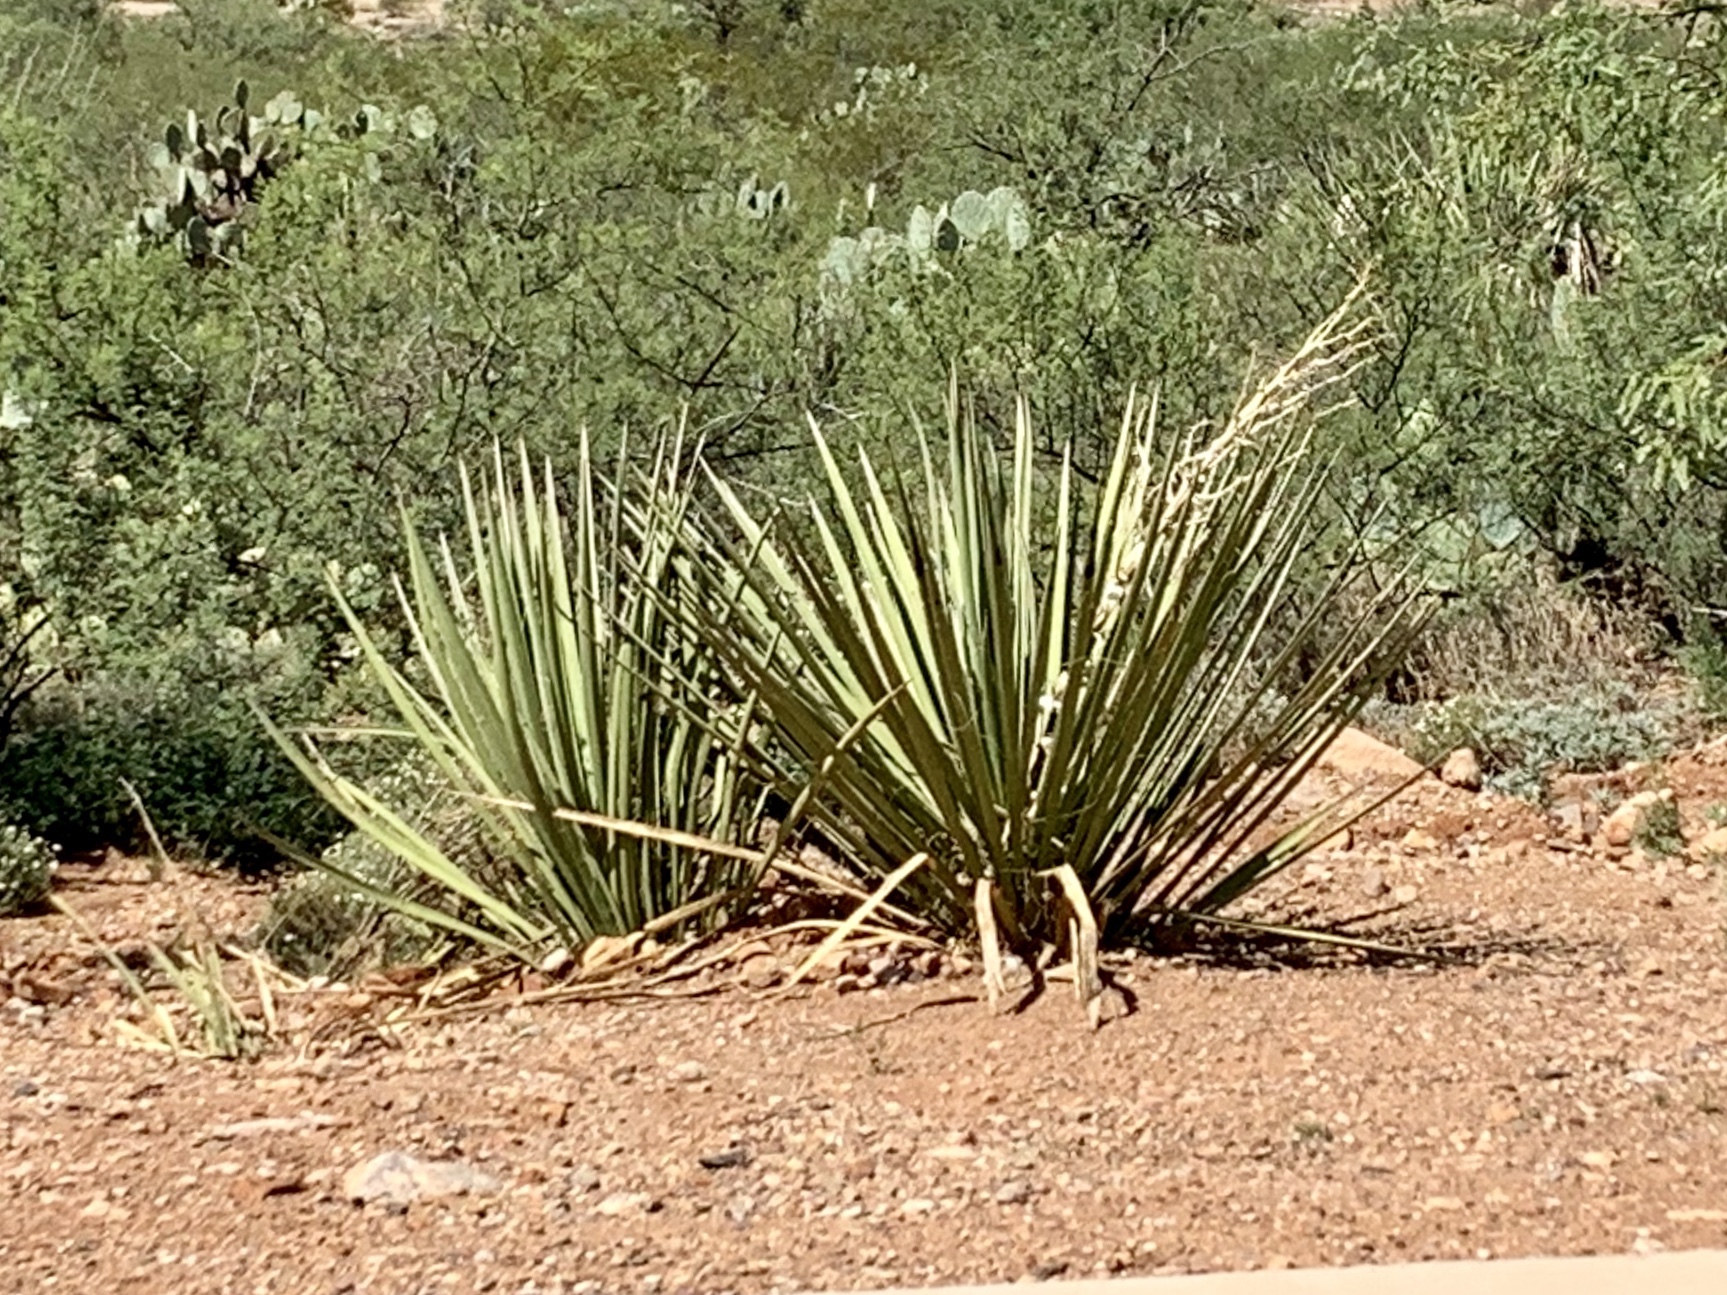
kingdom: Plantae
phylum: Tracheophyta
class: Liliopsida
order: Asparagales
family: Asparagaceae
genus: Yucca
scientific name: Yucca baccata
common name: Banana yucca
